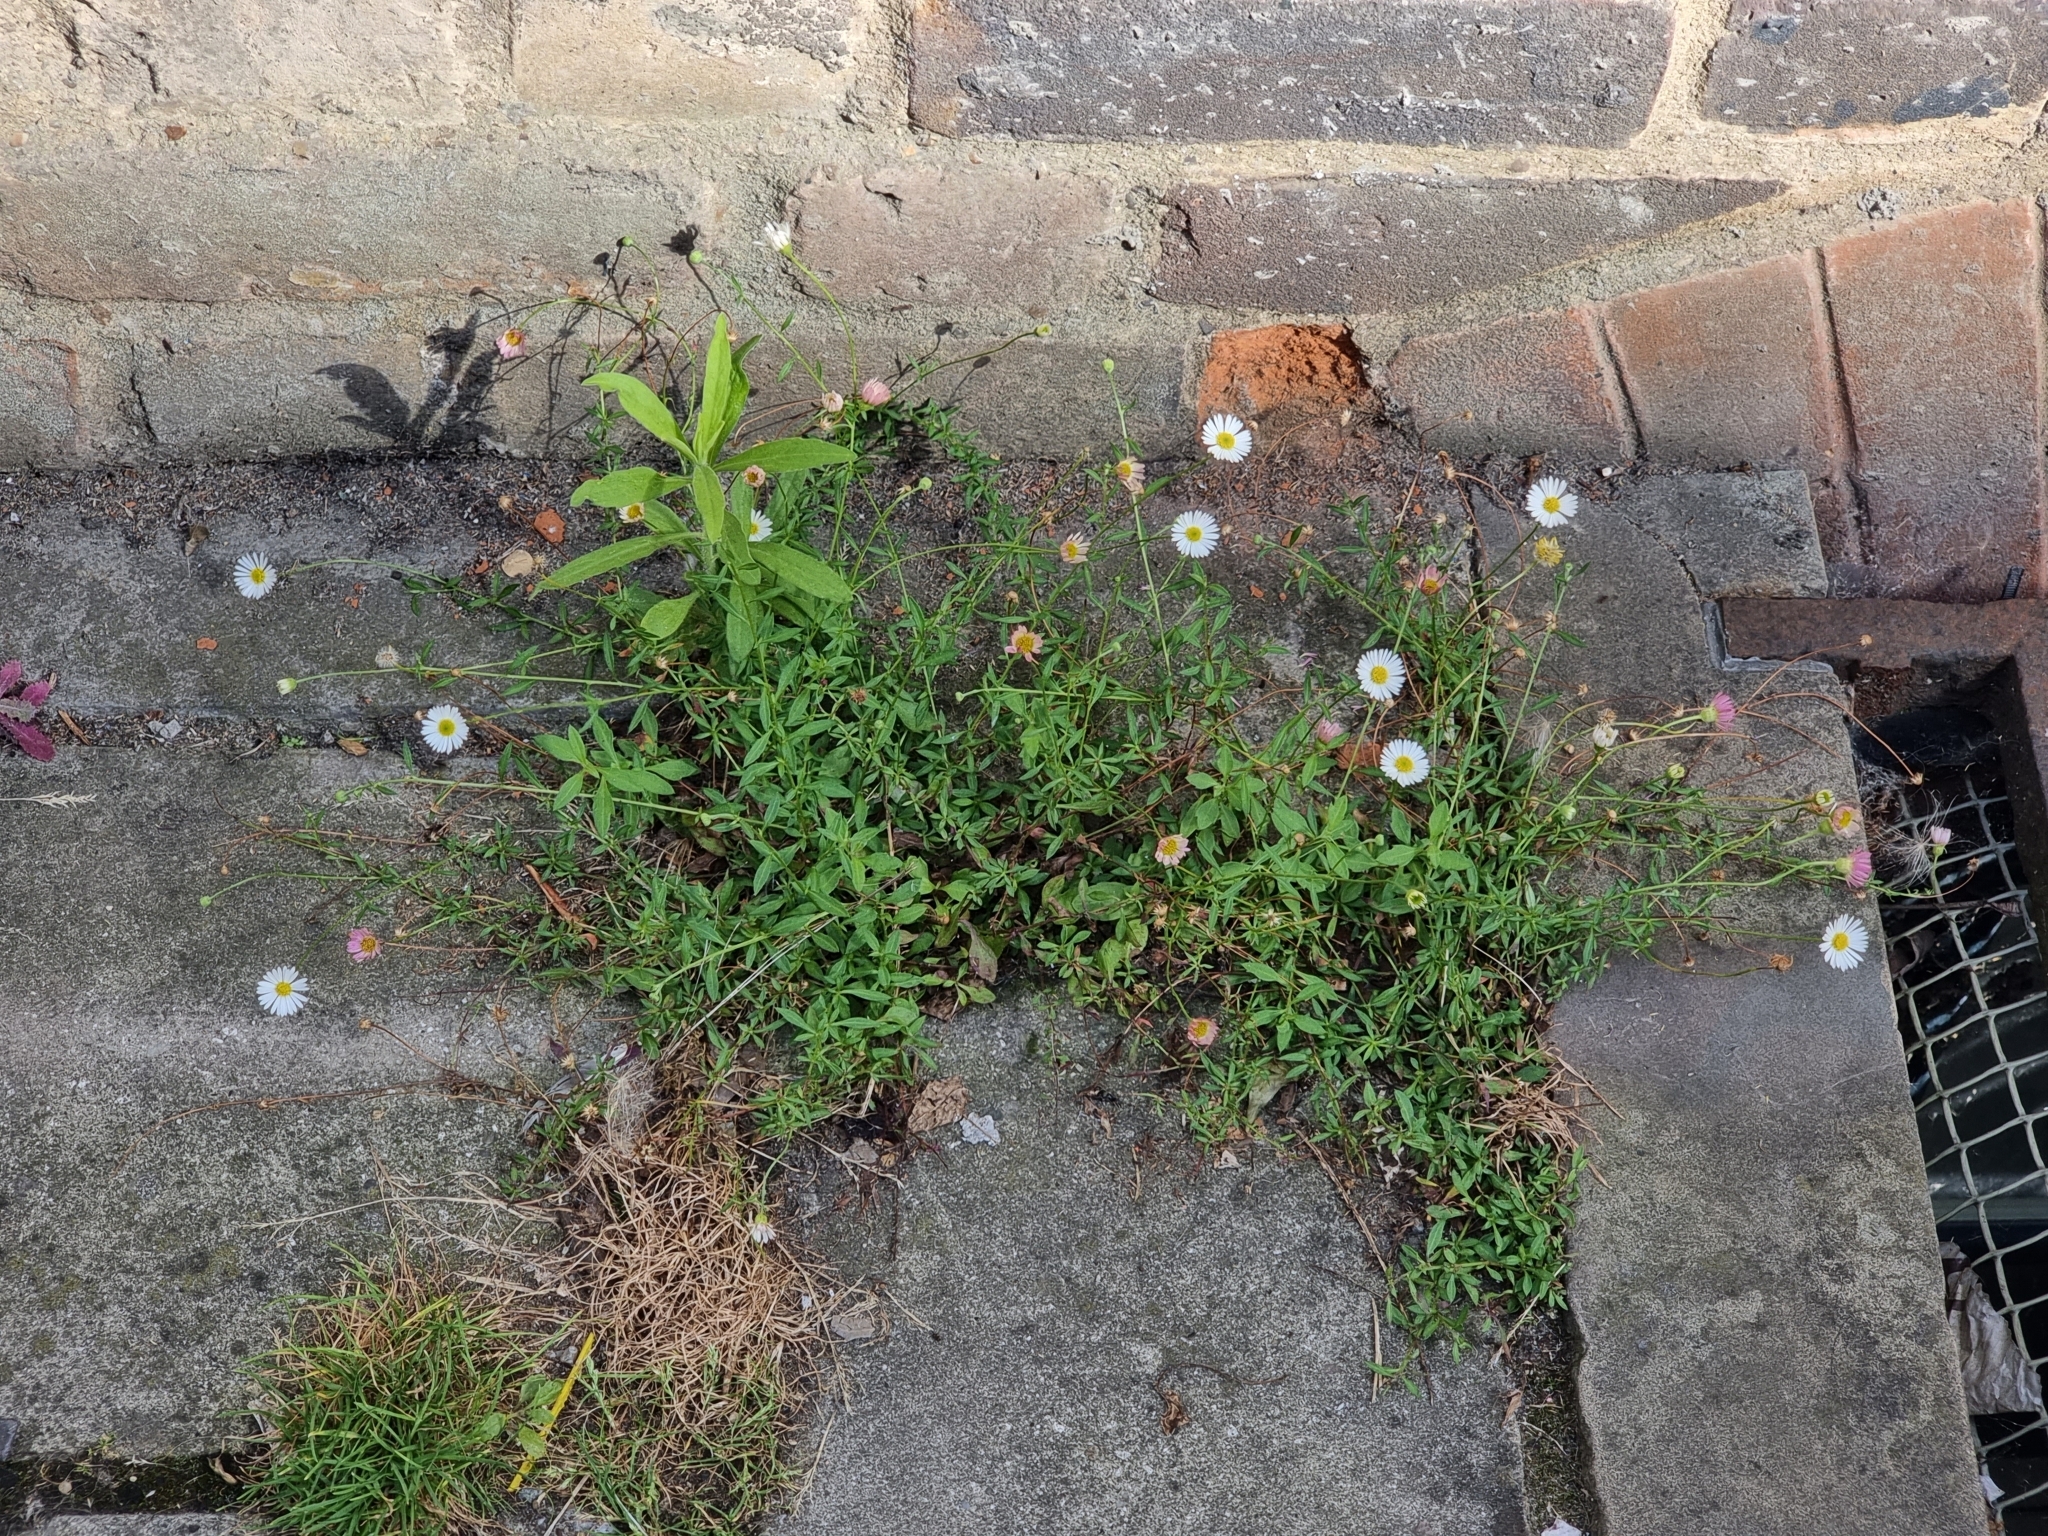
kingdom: Plantae
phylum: Tracheophyta
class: Magnoliopsida
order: Asterales
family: Asteraceae
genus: Erigeron
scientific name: Erigeron karvinskianus
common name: Mexican fleabane
